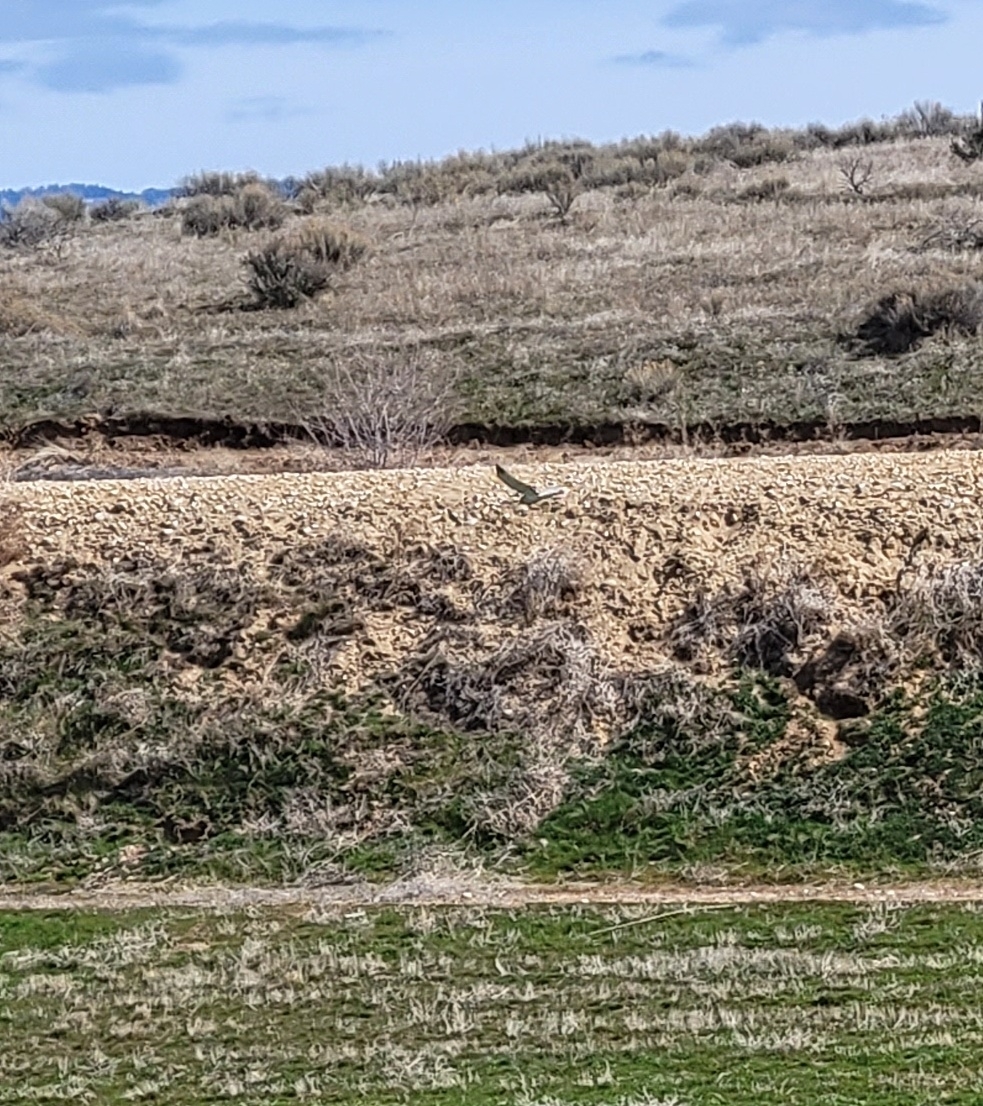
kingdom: Animalia
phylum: Chordata
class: Aves
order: Accipitriformes
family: Accipitridae
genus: Circus
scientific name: Circus cyaneus
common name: Hen harrier
